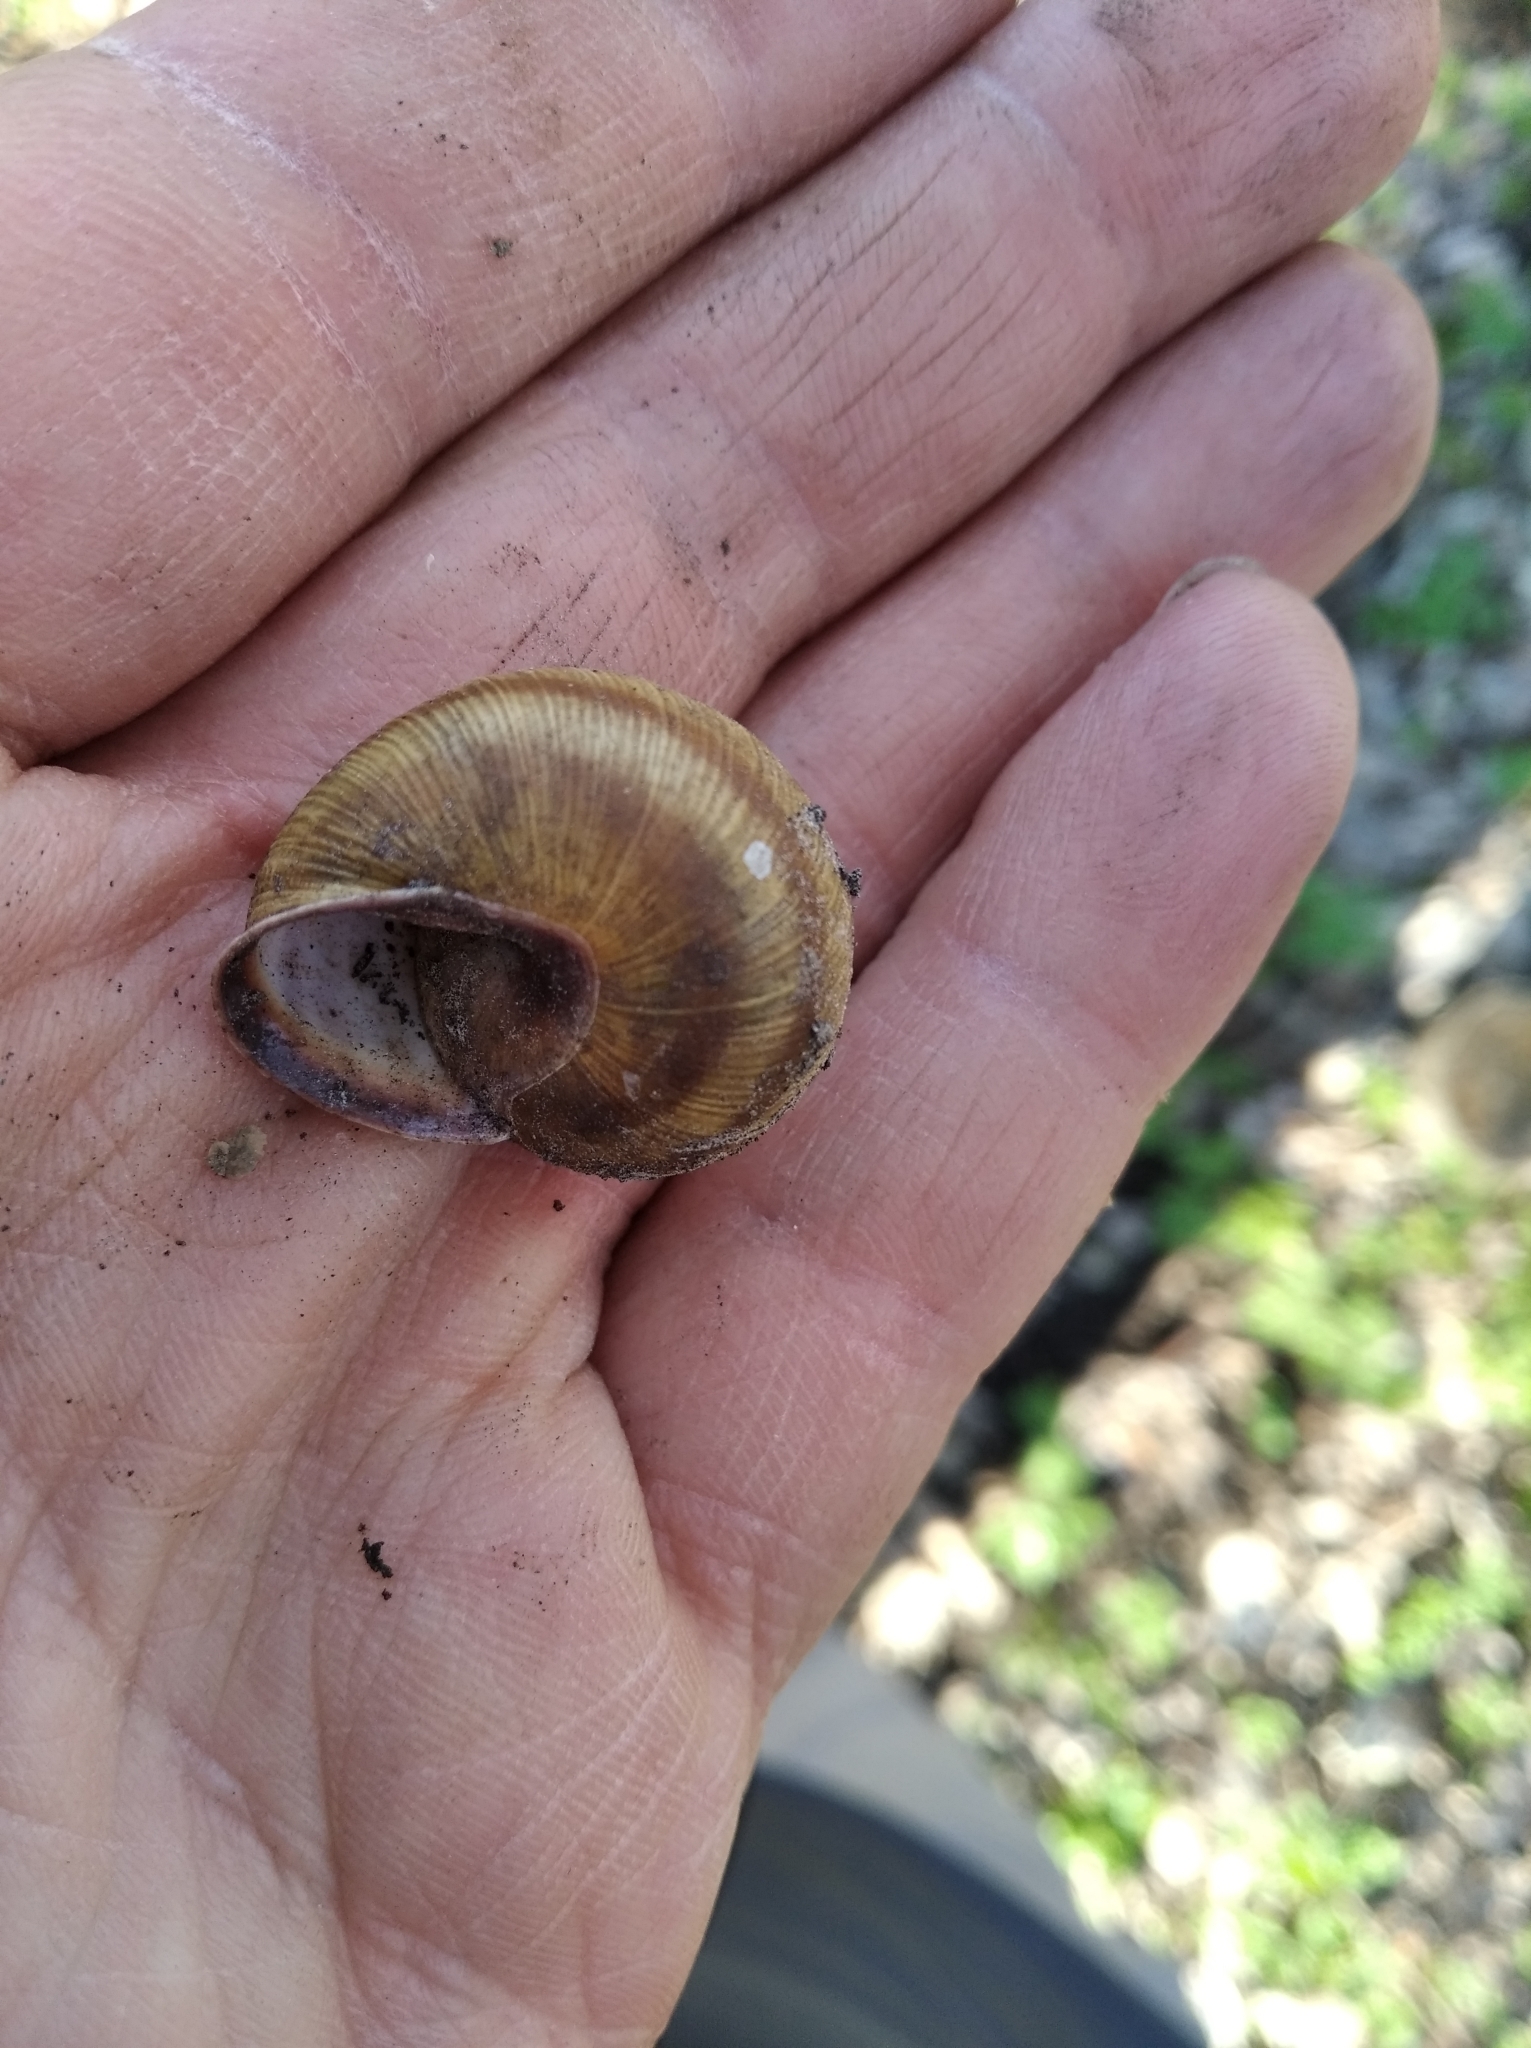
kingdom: Animalia
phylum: Mollusca
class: Gastropoda
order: Stylommatophora
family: Helicidae
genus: Caucasotachea
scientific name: Caucasotachea vindobonensis
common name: European helicid land snail
